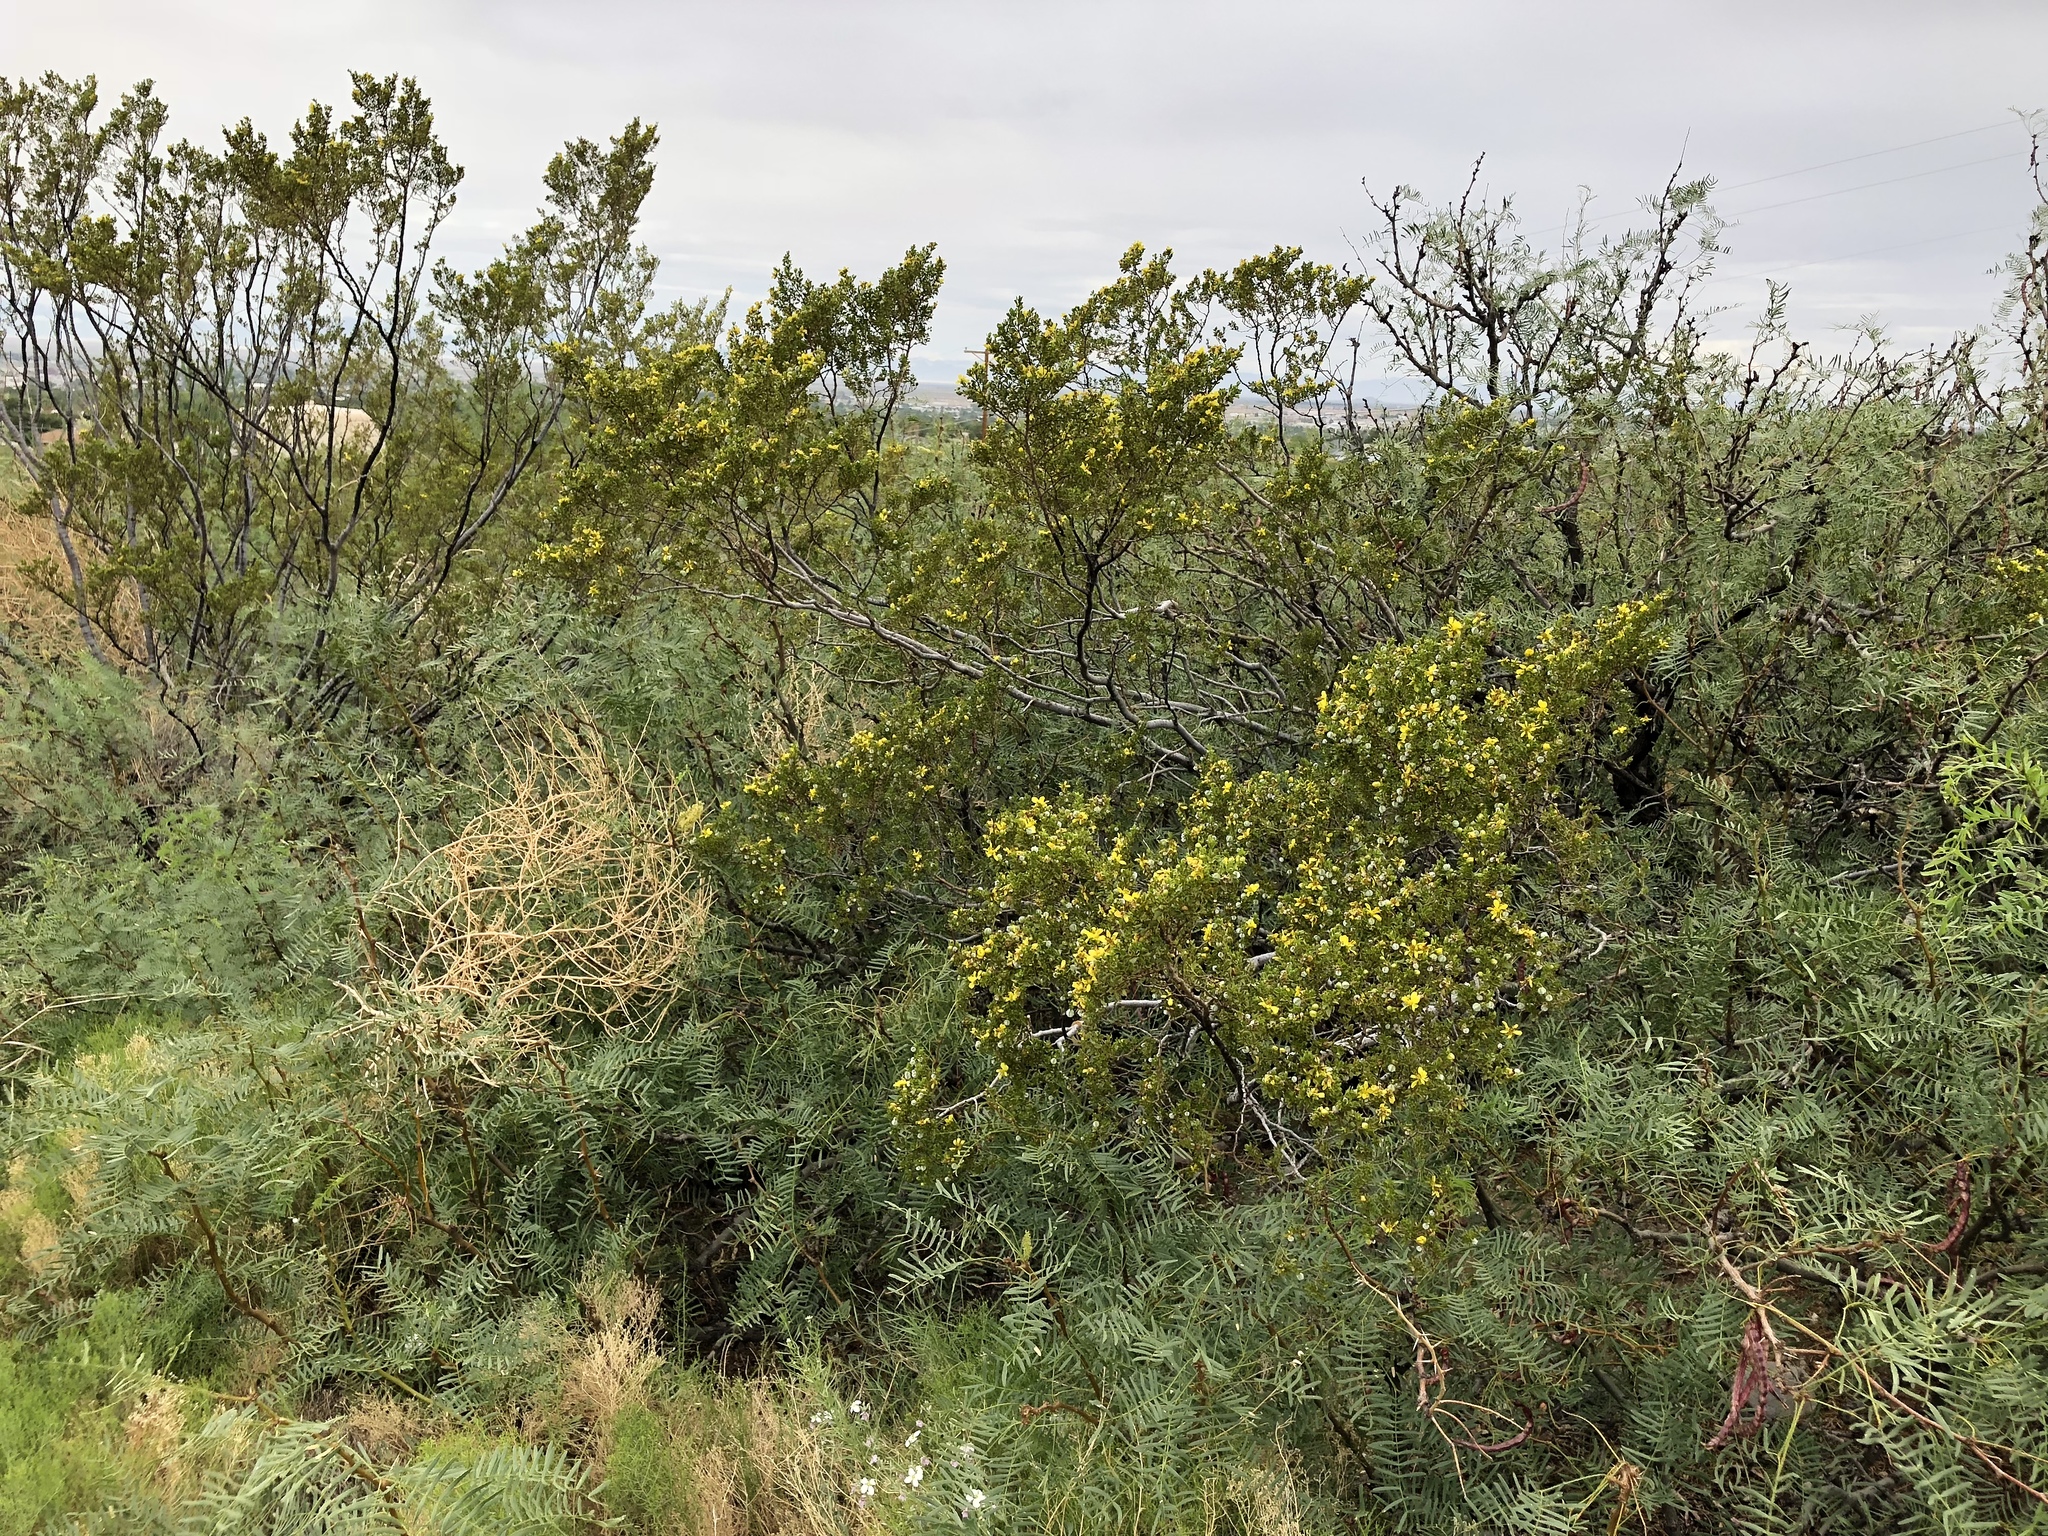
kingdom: Plantae
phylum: Tracheophyta
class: Magnoliopsida
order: Zygophyllales
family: Zygophyllaceae
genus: Larrea
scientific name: Larrea tridentata
